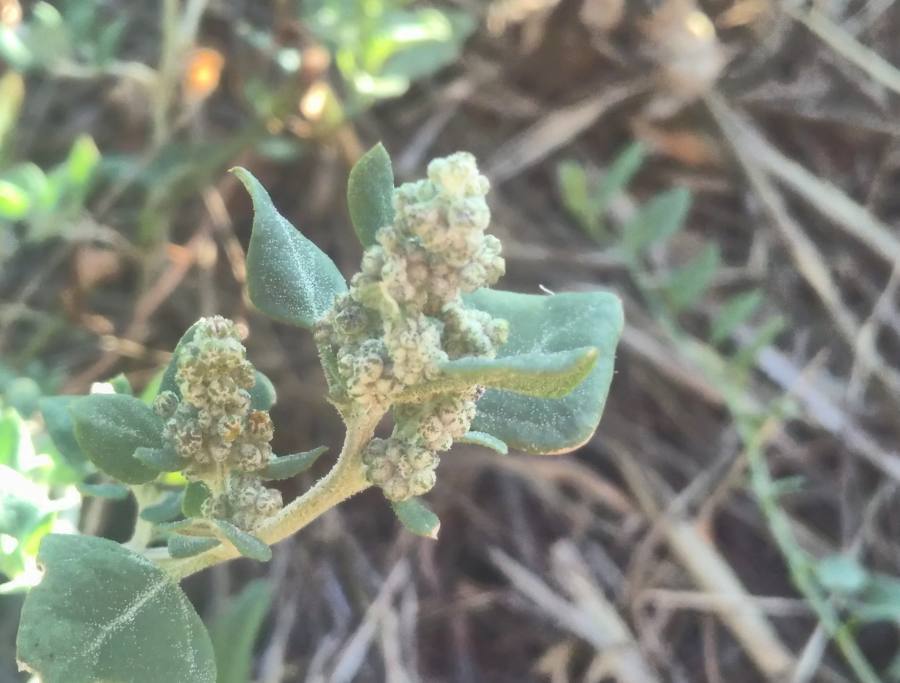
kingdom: Plantae
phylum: Tracheophyta
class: Magnoliopsida
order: Caryophyllales
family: Amaranthaceae
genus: Chenopodium
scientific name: Chenopodium vulvaria
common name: Stinking goosefoot
